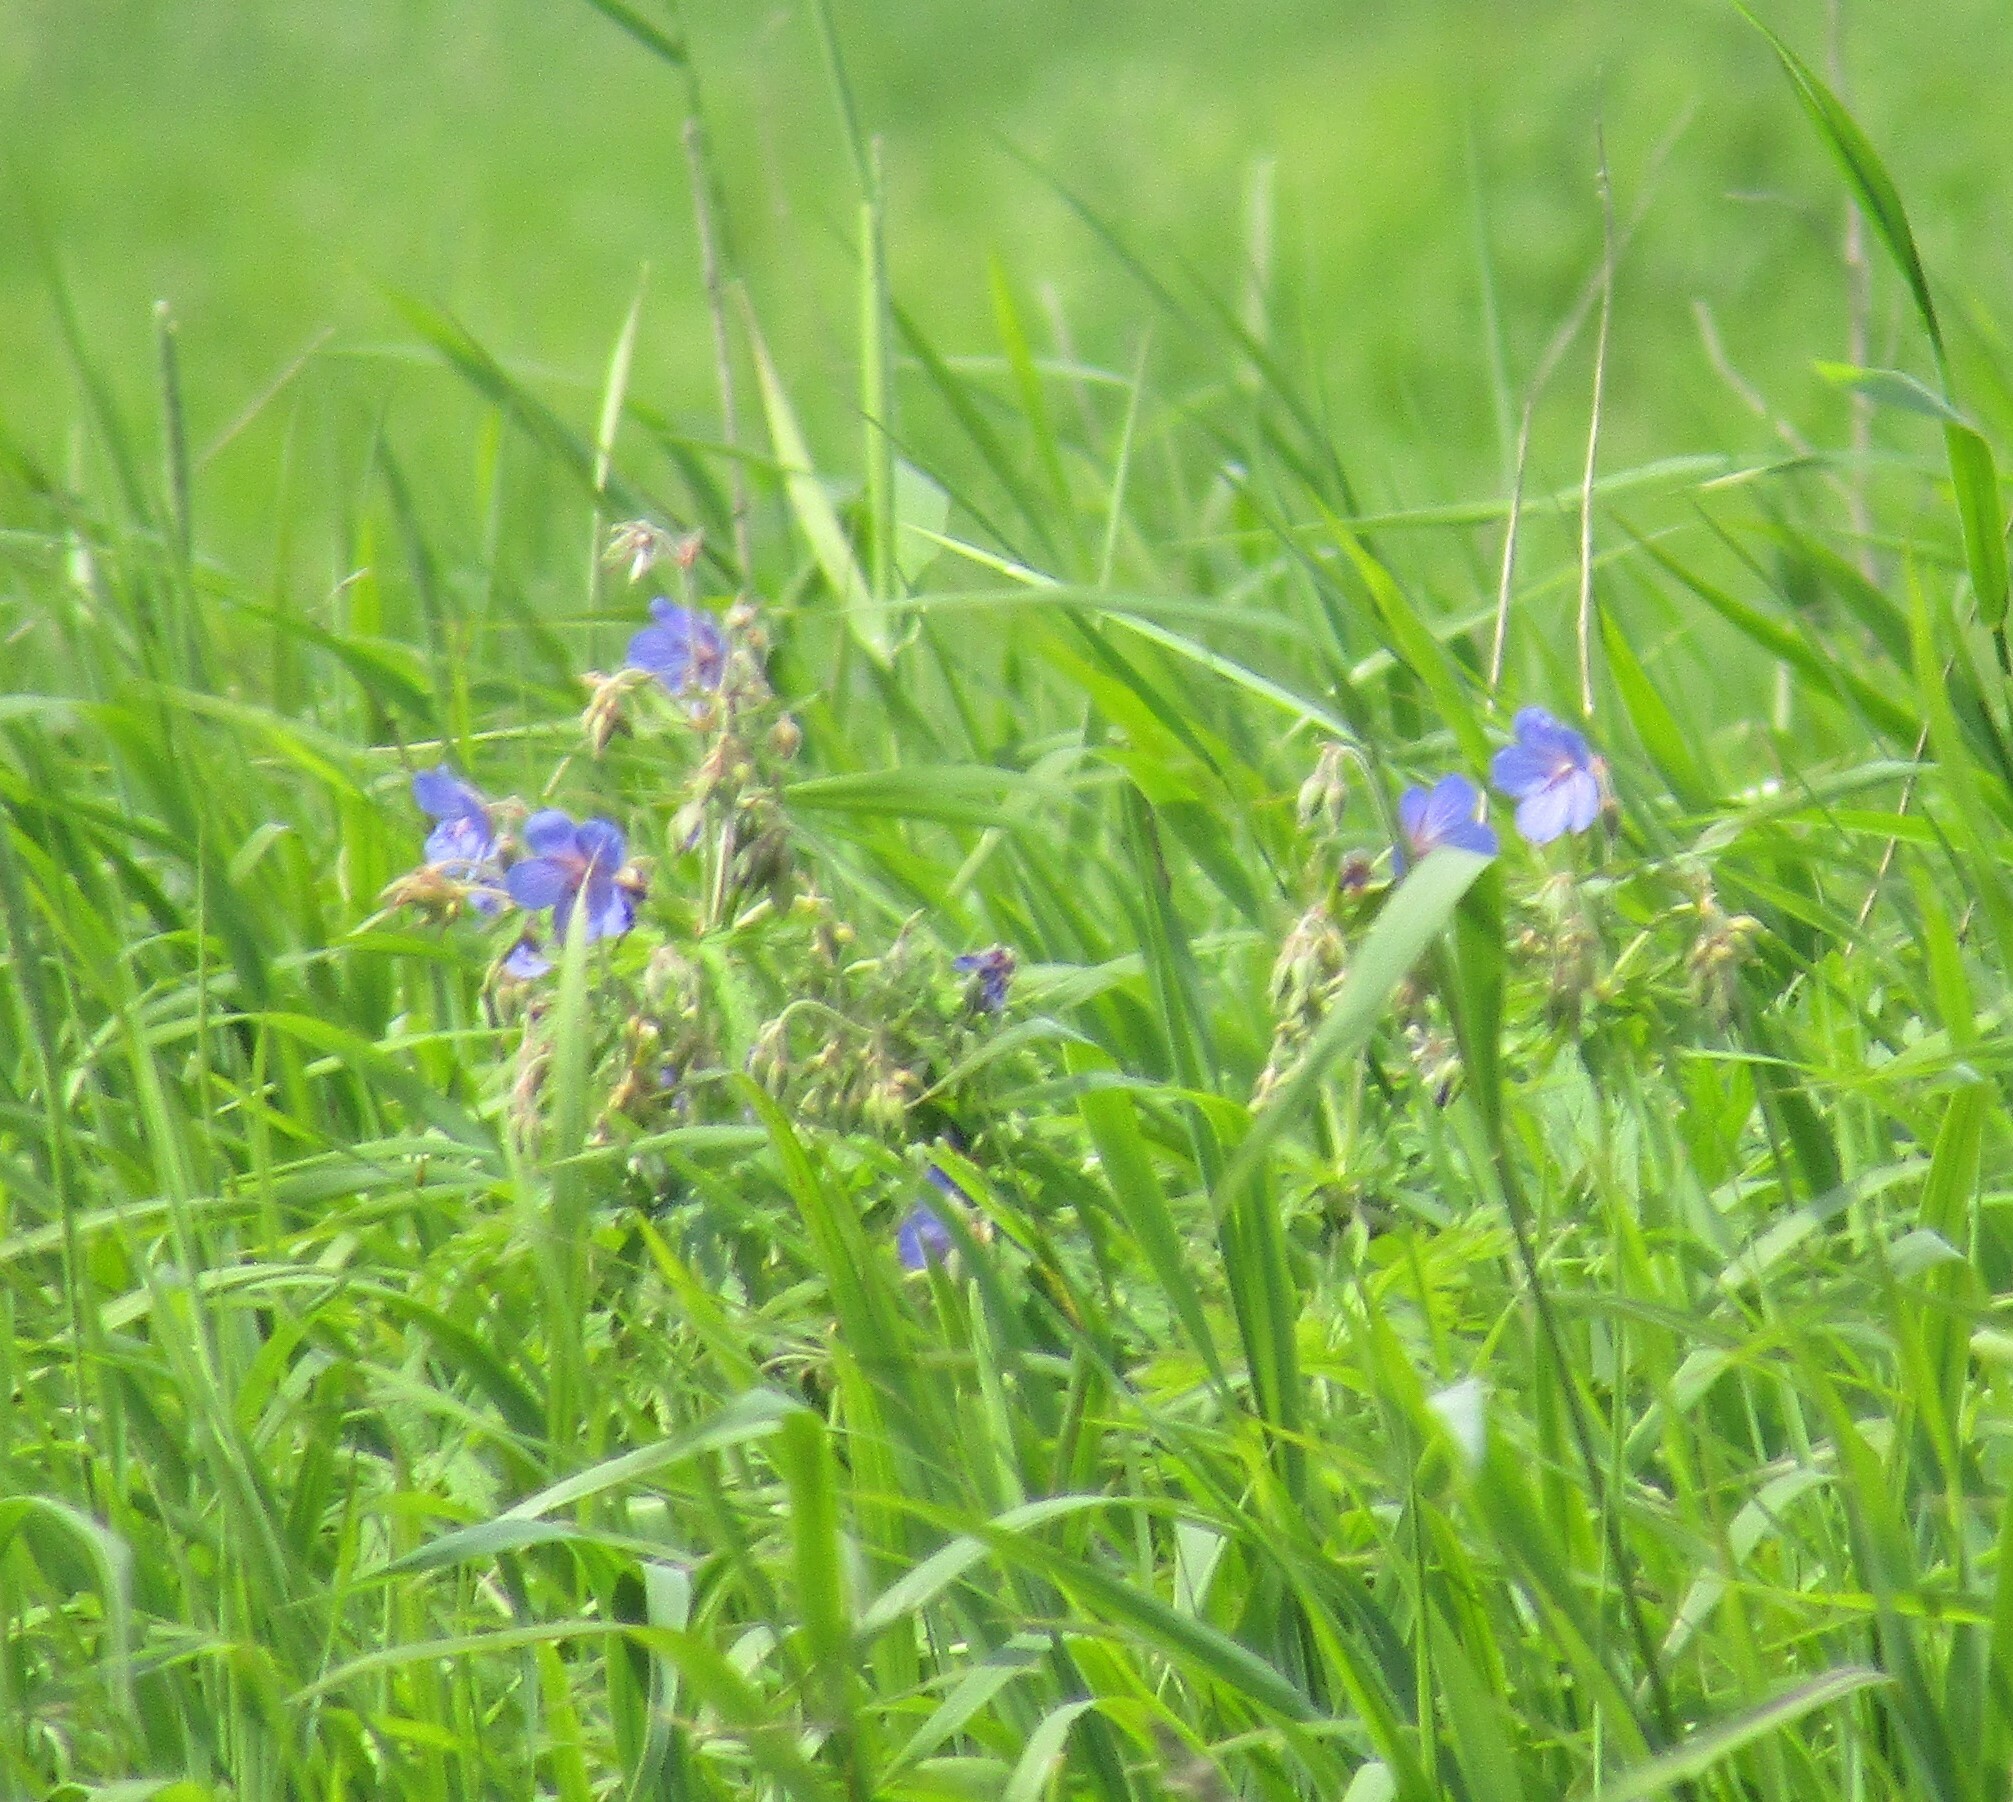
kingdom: Plantae
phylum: Tracheophyta
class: Magnoliopsida
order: Geraniales
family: Geraniaceae
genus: Geranium
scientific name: Geranium pratense
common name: Meadow crane's-bill
